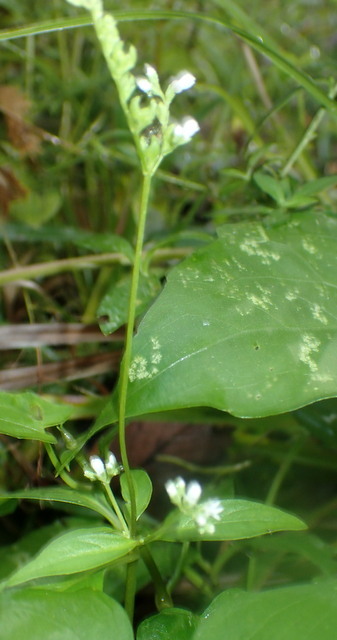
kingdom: Plantae
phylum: Tracheophyta
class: Magnoliopsida
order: Gentianales
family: Loganiaceae
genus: Mitreola
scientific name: Mitreola petiolata
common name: Lax hornpod
